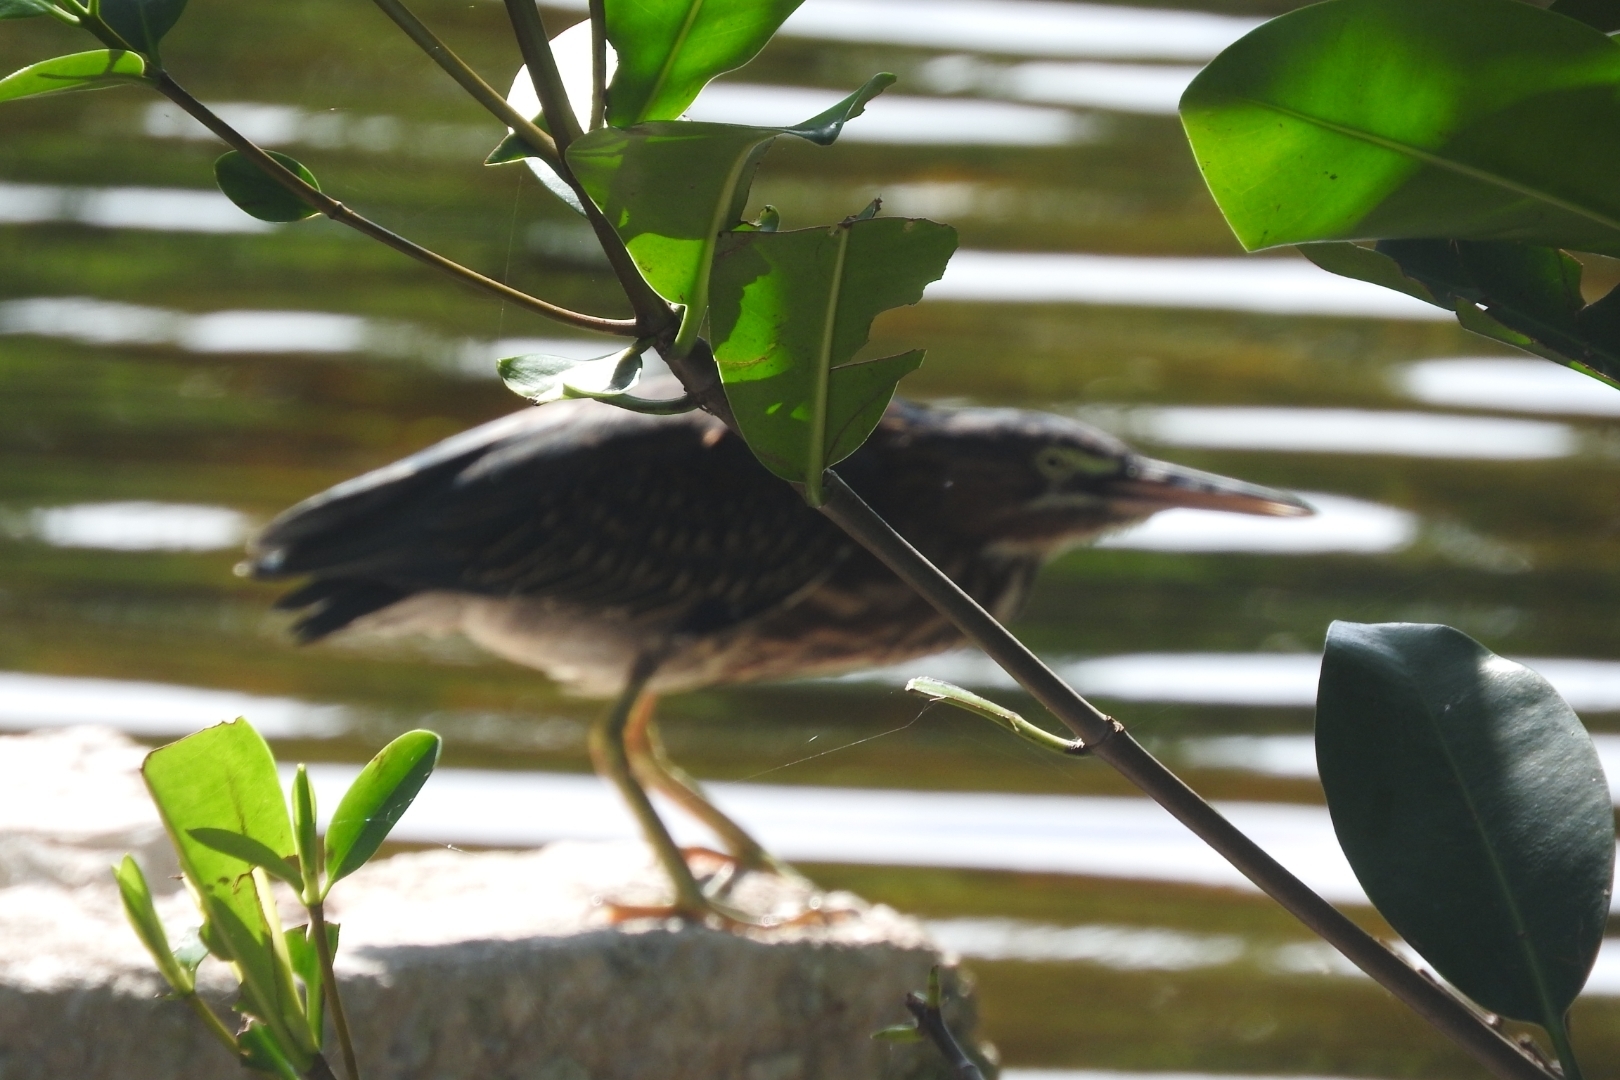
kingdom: Animalia
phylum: Chordata
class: Aves
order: Pelecaniformes
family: Ardeidae
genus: Butorides
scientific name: Butorides virescens
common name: Green heron
